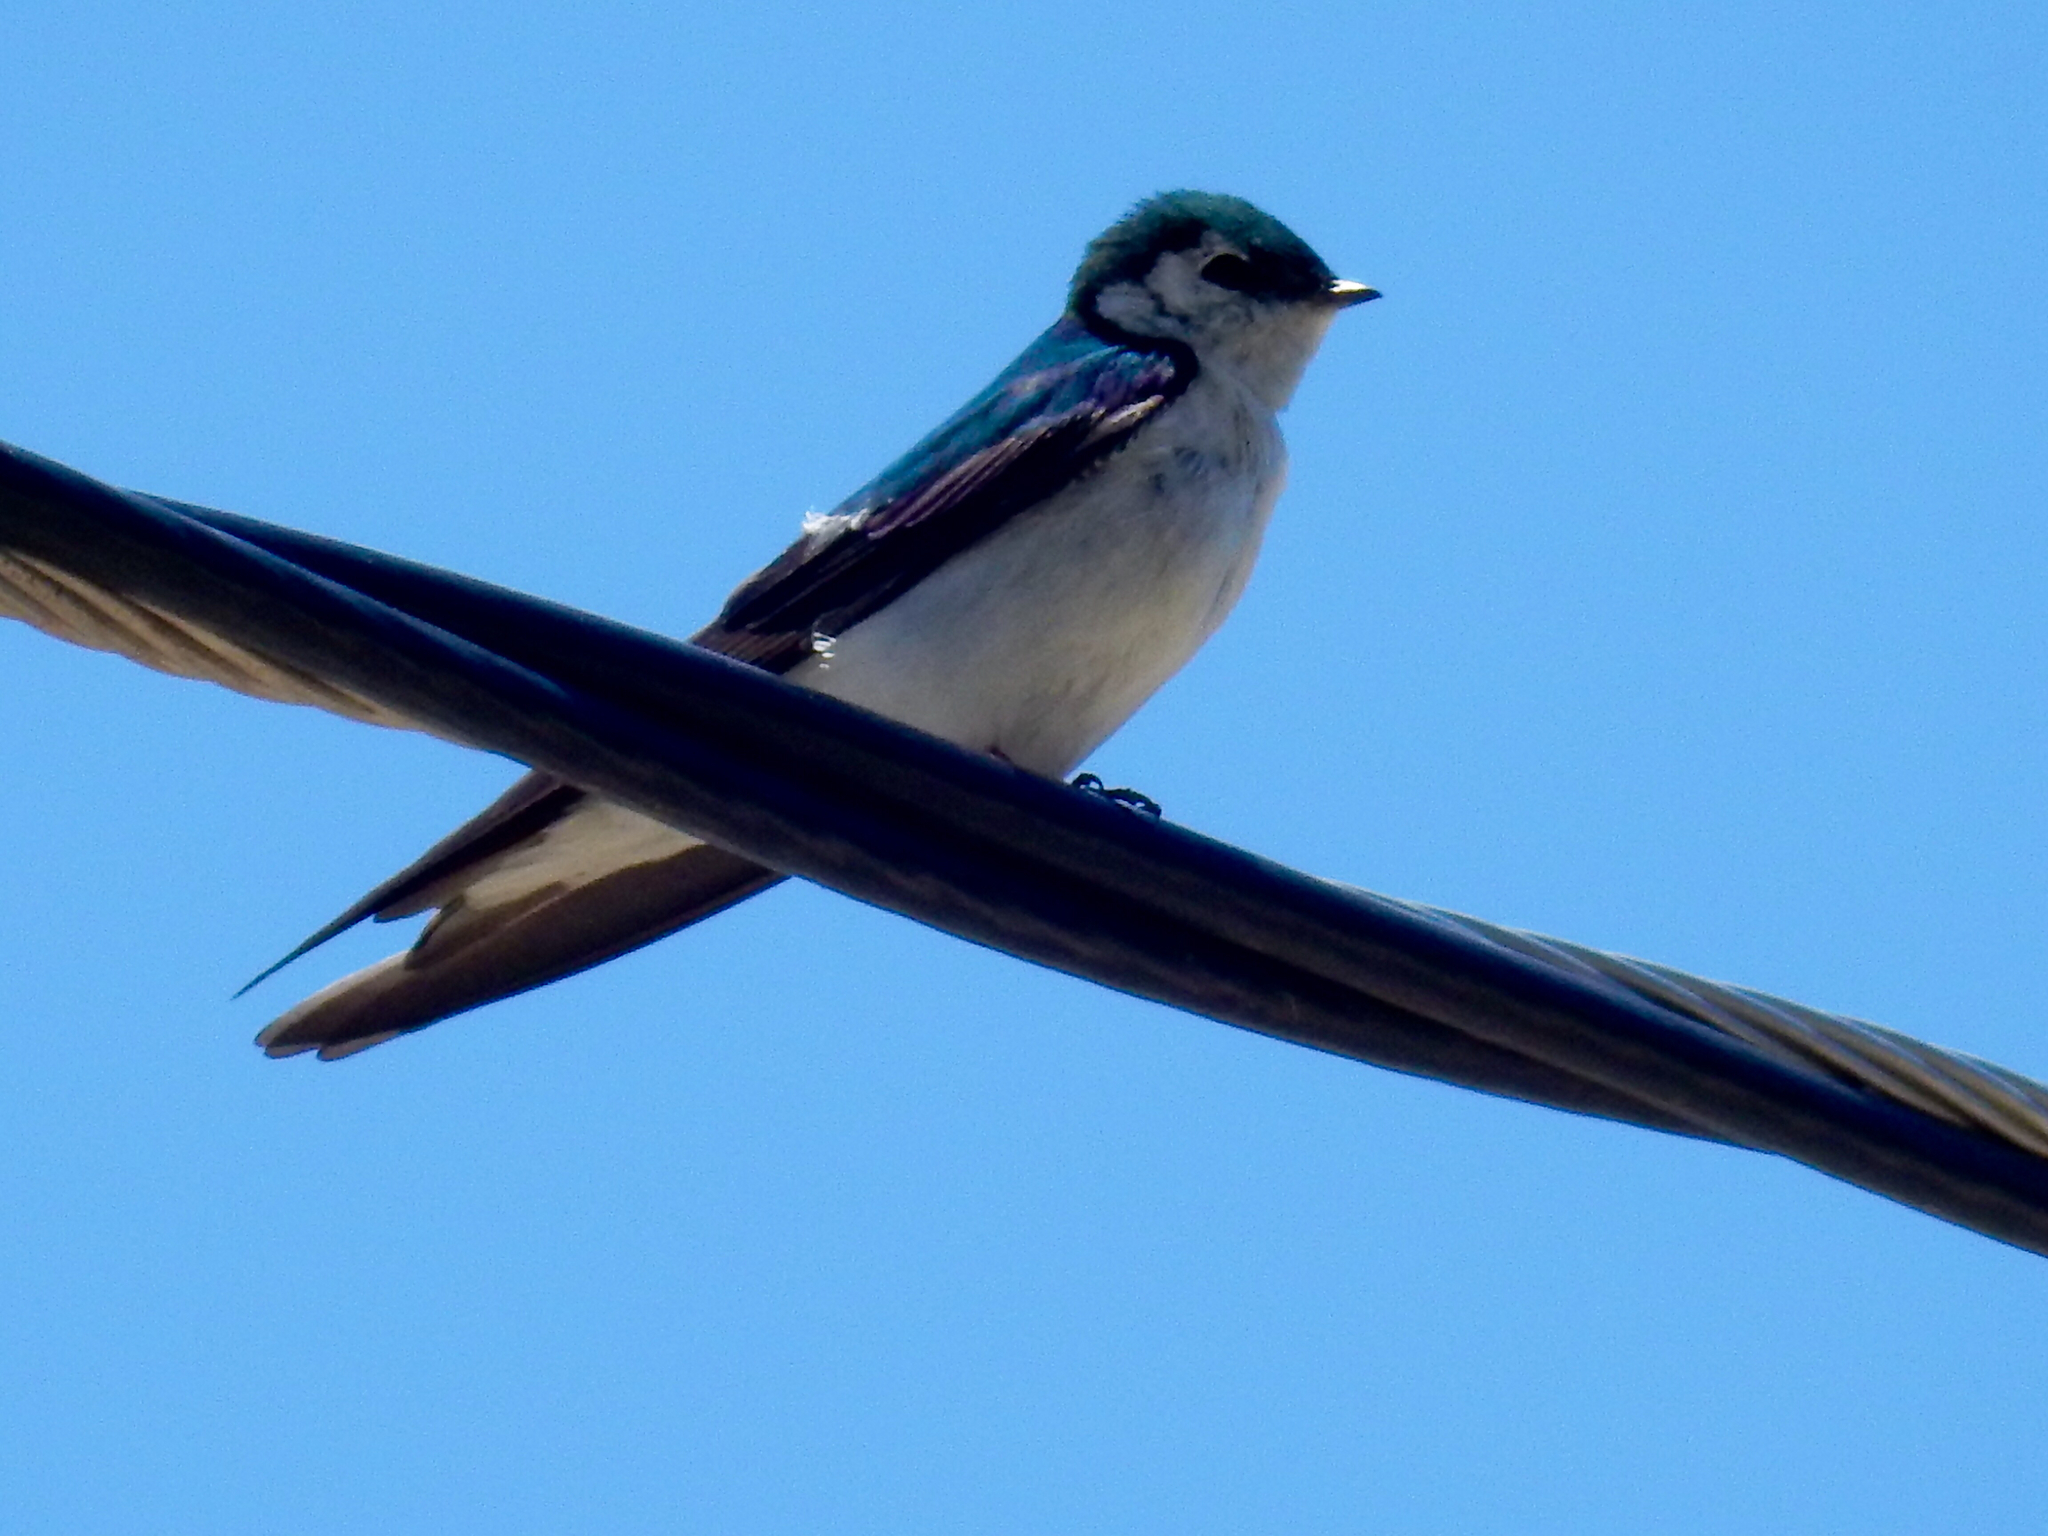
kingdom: Animalia
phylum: Chordata
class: Aves
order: Passeriformes
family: Hirundinidae
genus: Tachycineta
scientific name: Tachycineta thalassina
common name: Violet-green swallow
